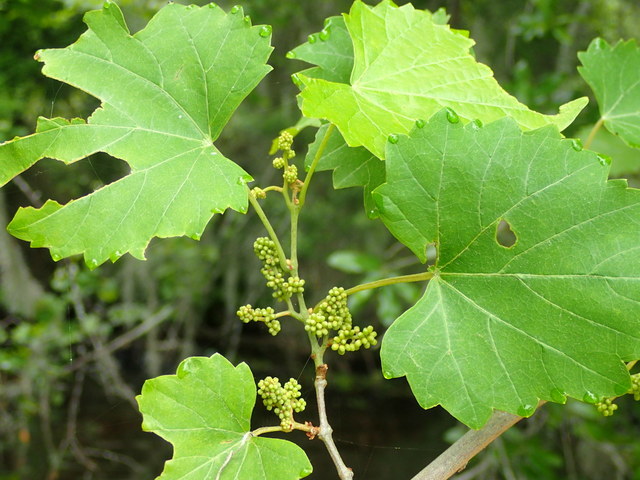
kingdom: Plantae
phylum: Tracheophyta
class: Magnoliopsida
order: Vitales
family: Vitaceae
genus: Vitis
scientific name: Vitis rotundifolia
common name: Muscadine grape
